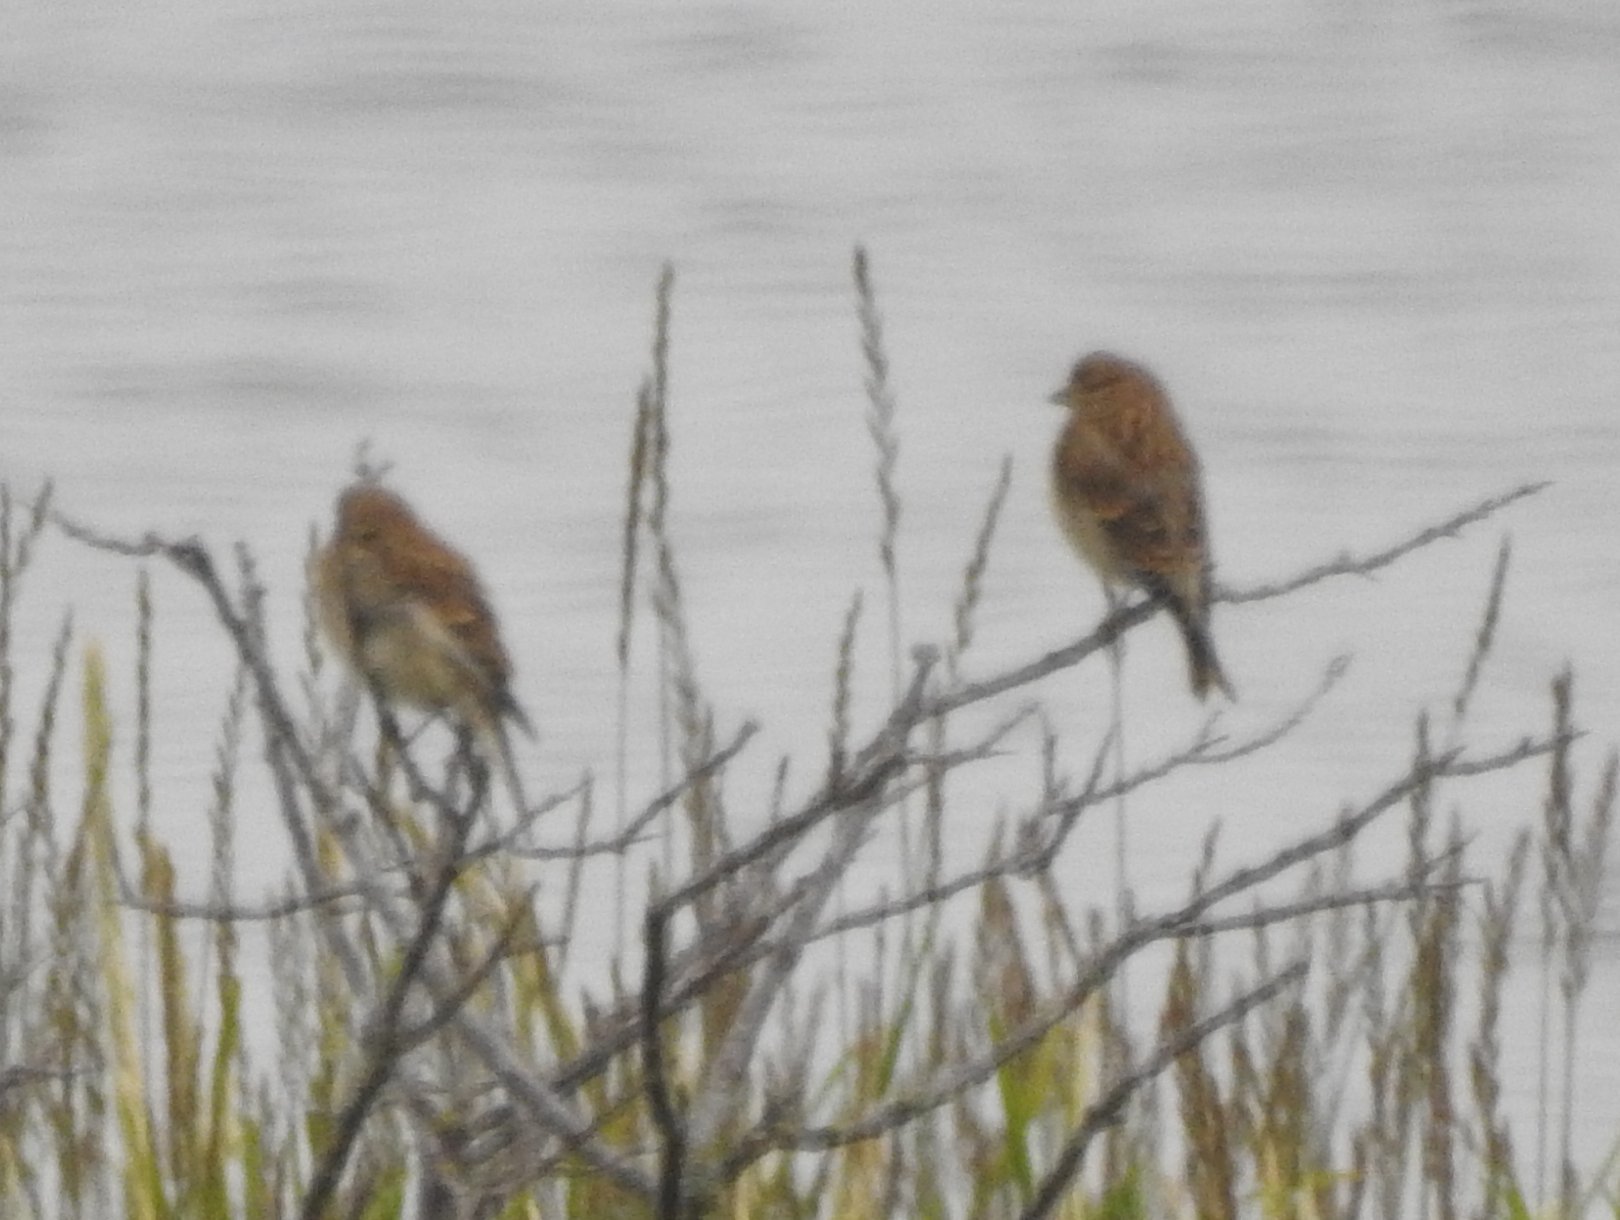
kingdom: Animalia
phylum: Chordata
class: Aves
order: Passeriformes
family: Fringillidae
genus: Linaria
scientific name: Linaria cannabina
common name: Common linnet
